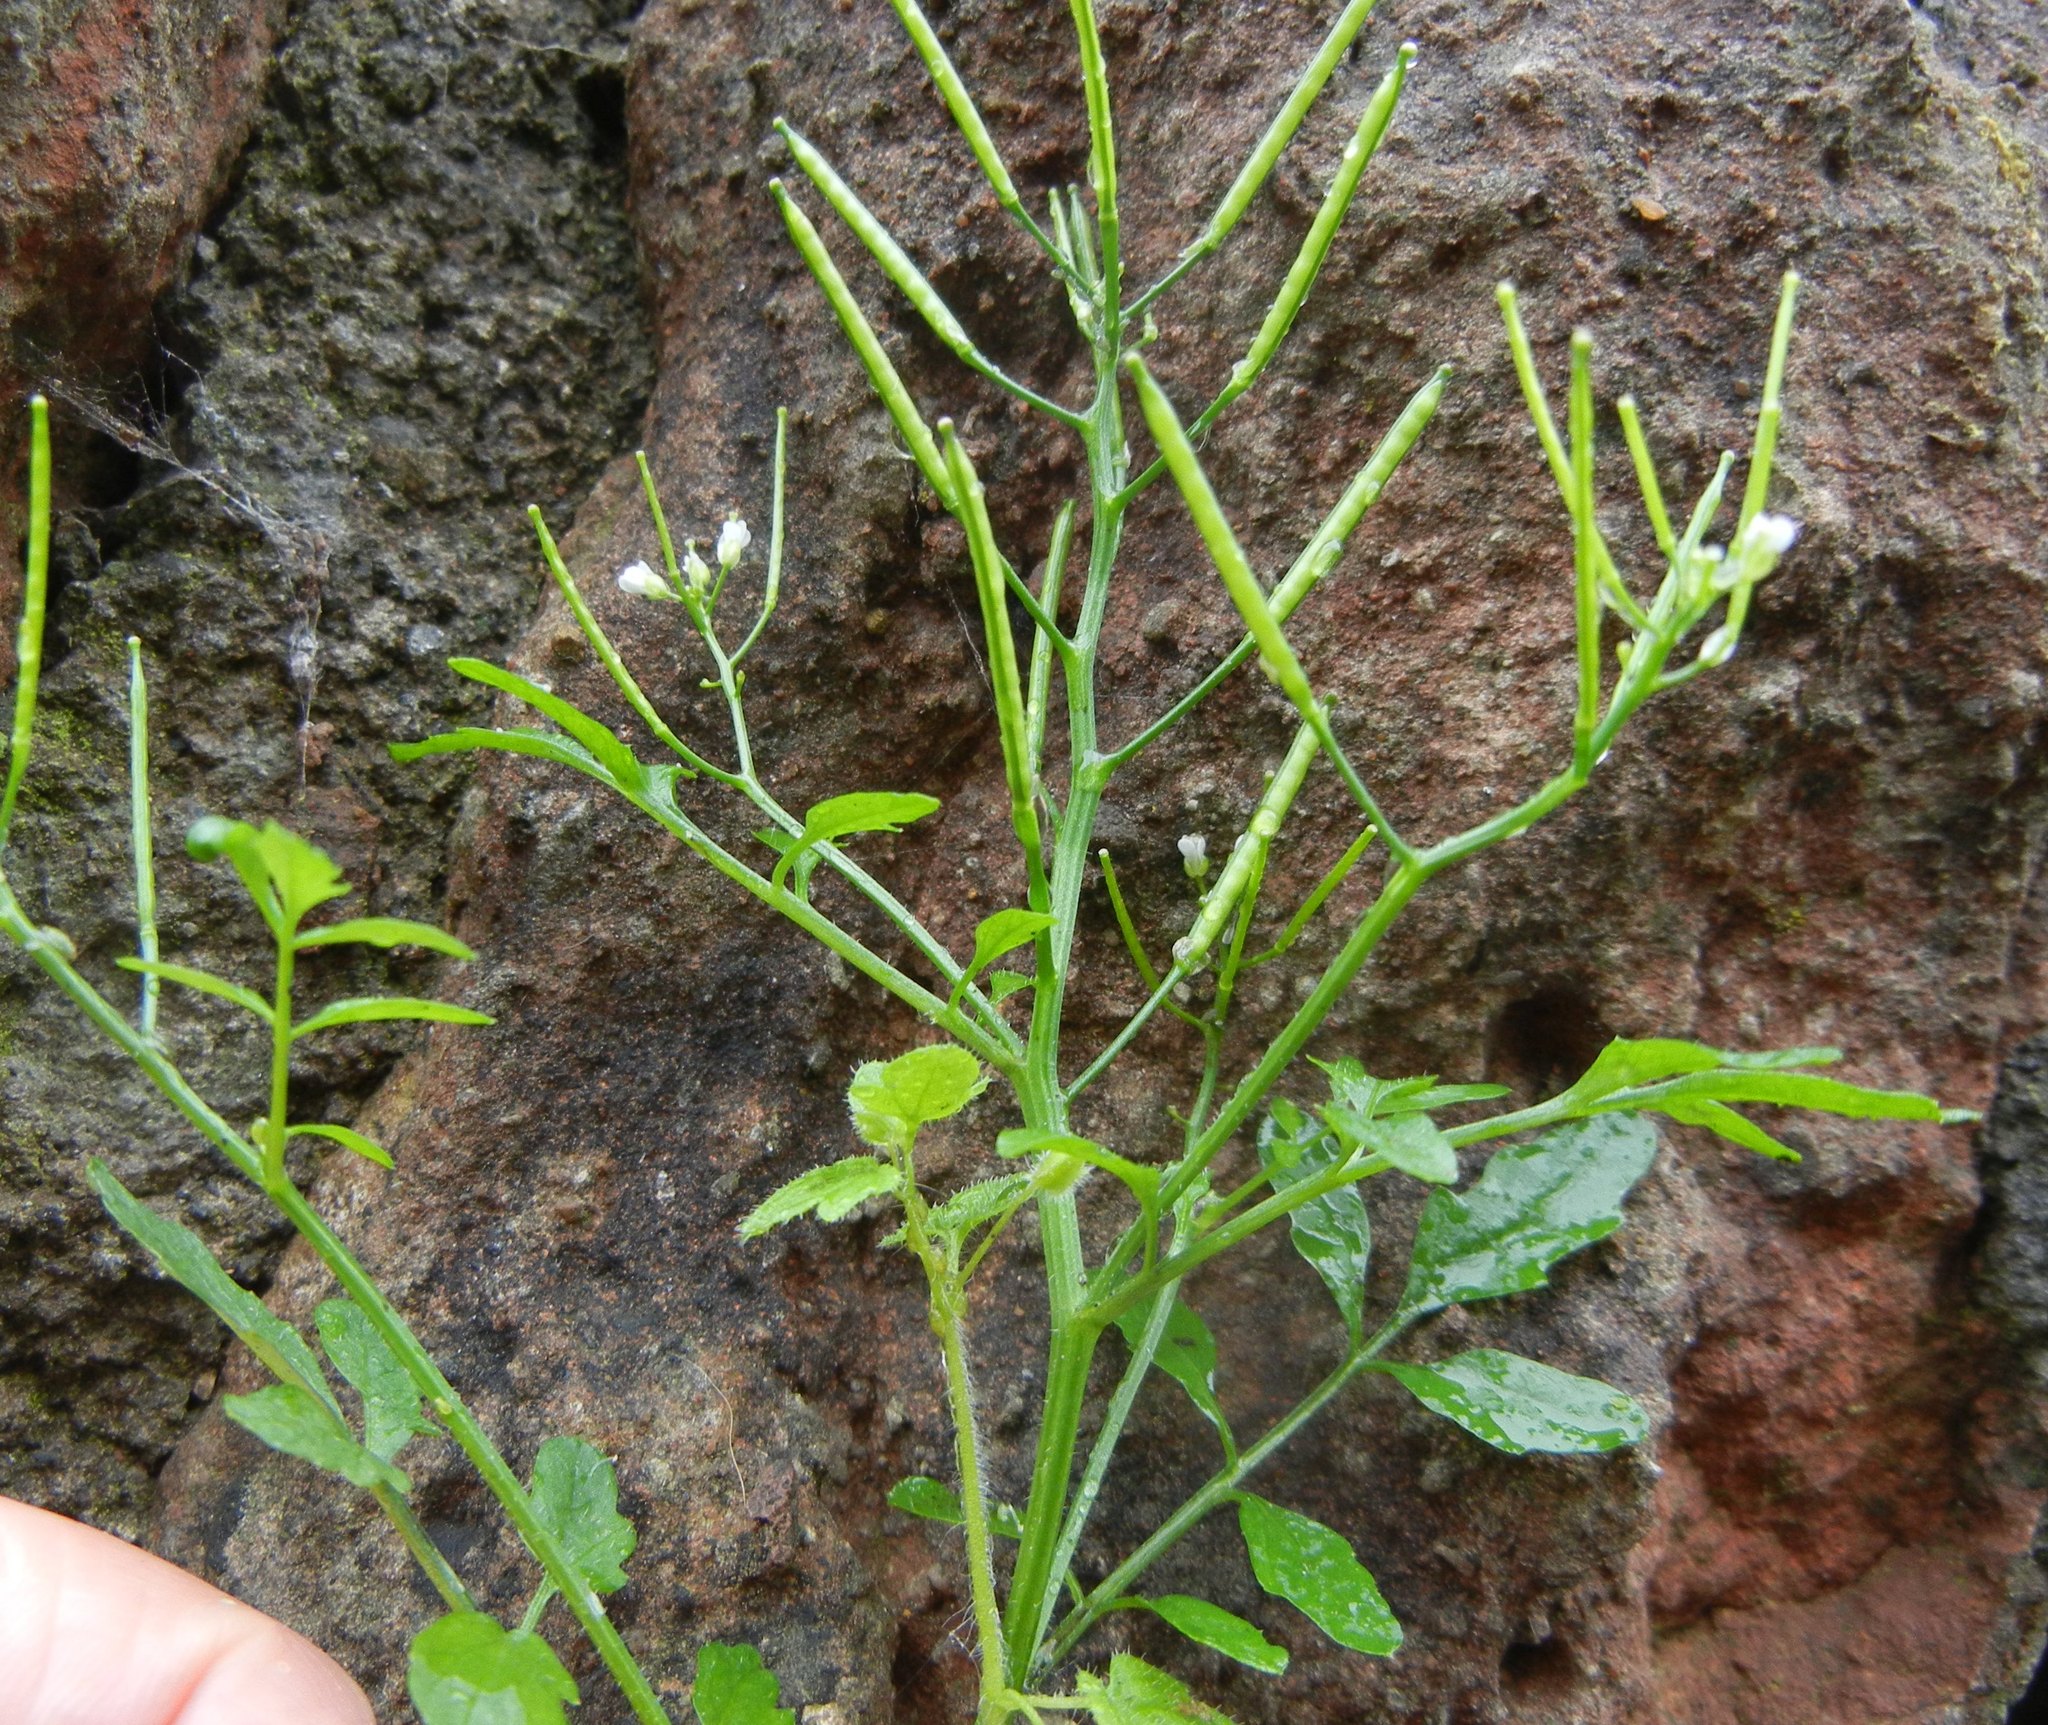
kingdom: Plantae
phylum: Tracheophyta
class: Magnoliopsida
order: Brassicales
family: Brassicaceae
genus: Cardamine
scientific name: Cardamine flexuosa
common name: Woodland bittercress
